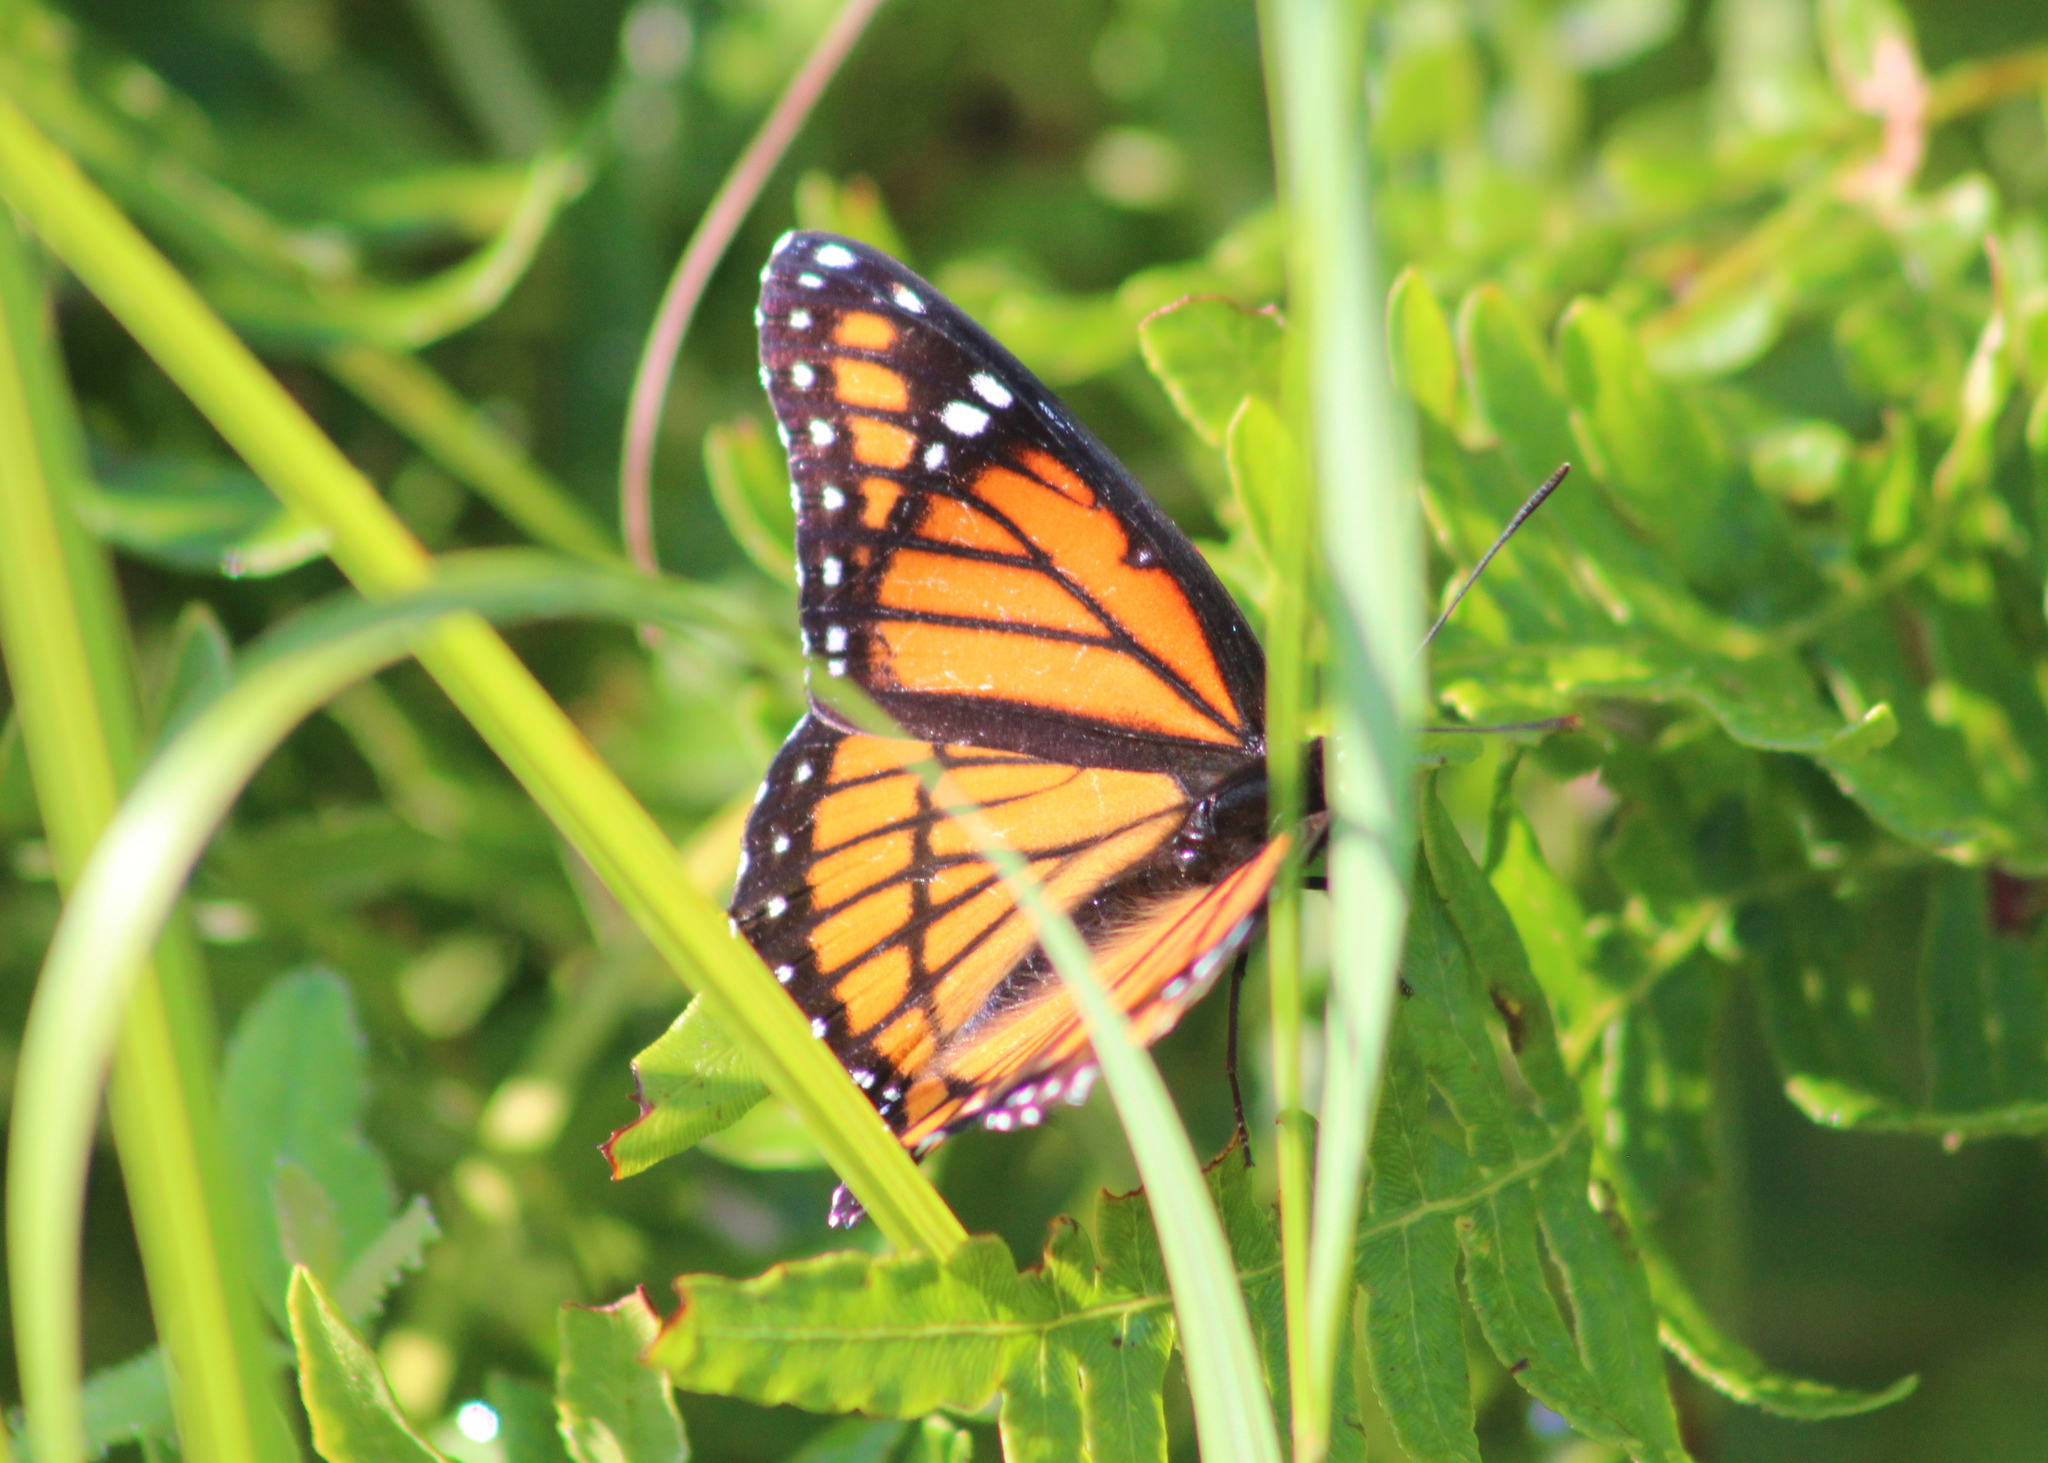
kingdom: Animalia
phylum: Arthropoda
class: Insecta
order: Lepidoptera
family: Nymphalidae
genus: Limenitis
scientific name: Limenitis archippus
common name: Viceroy
